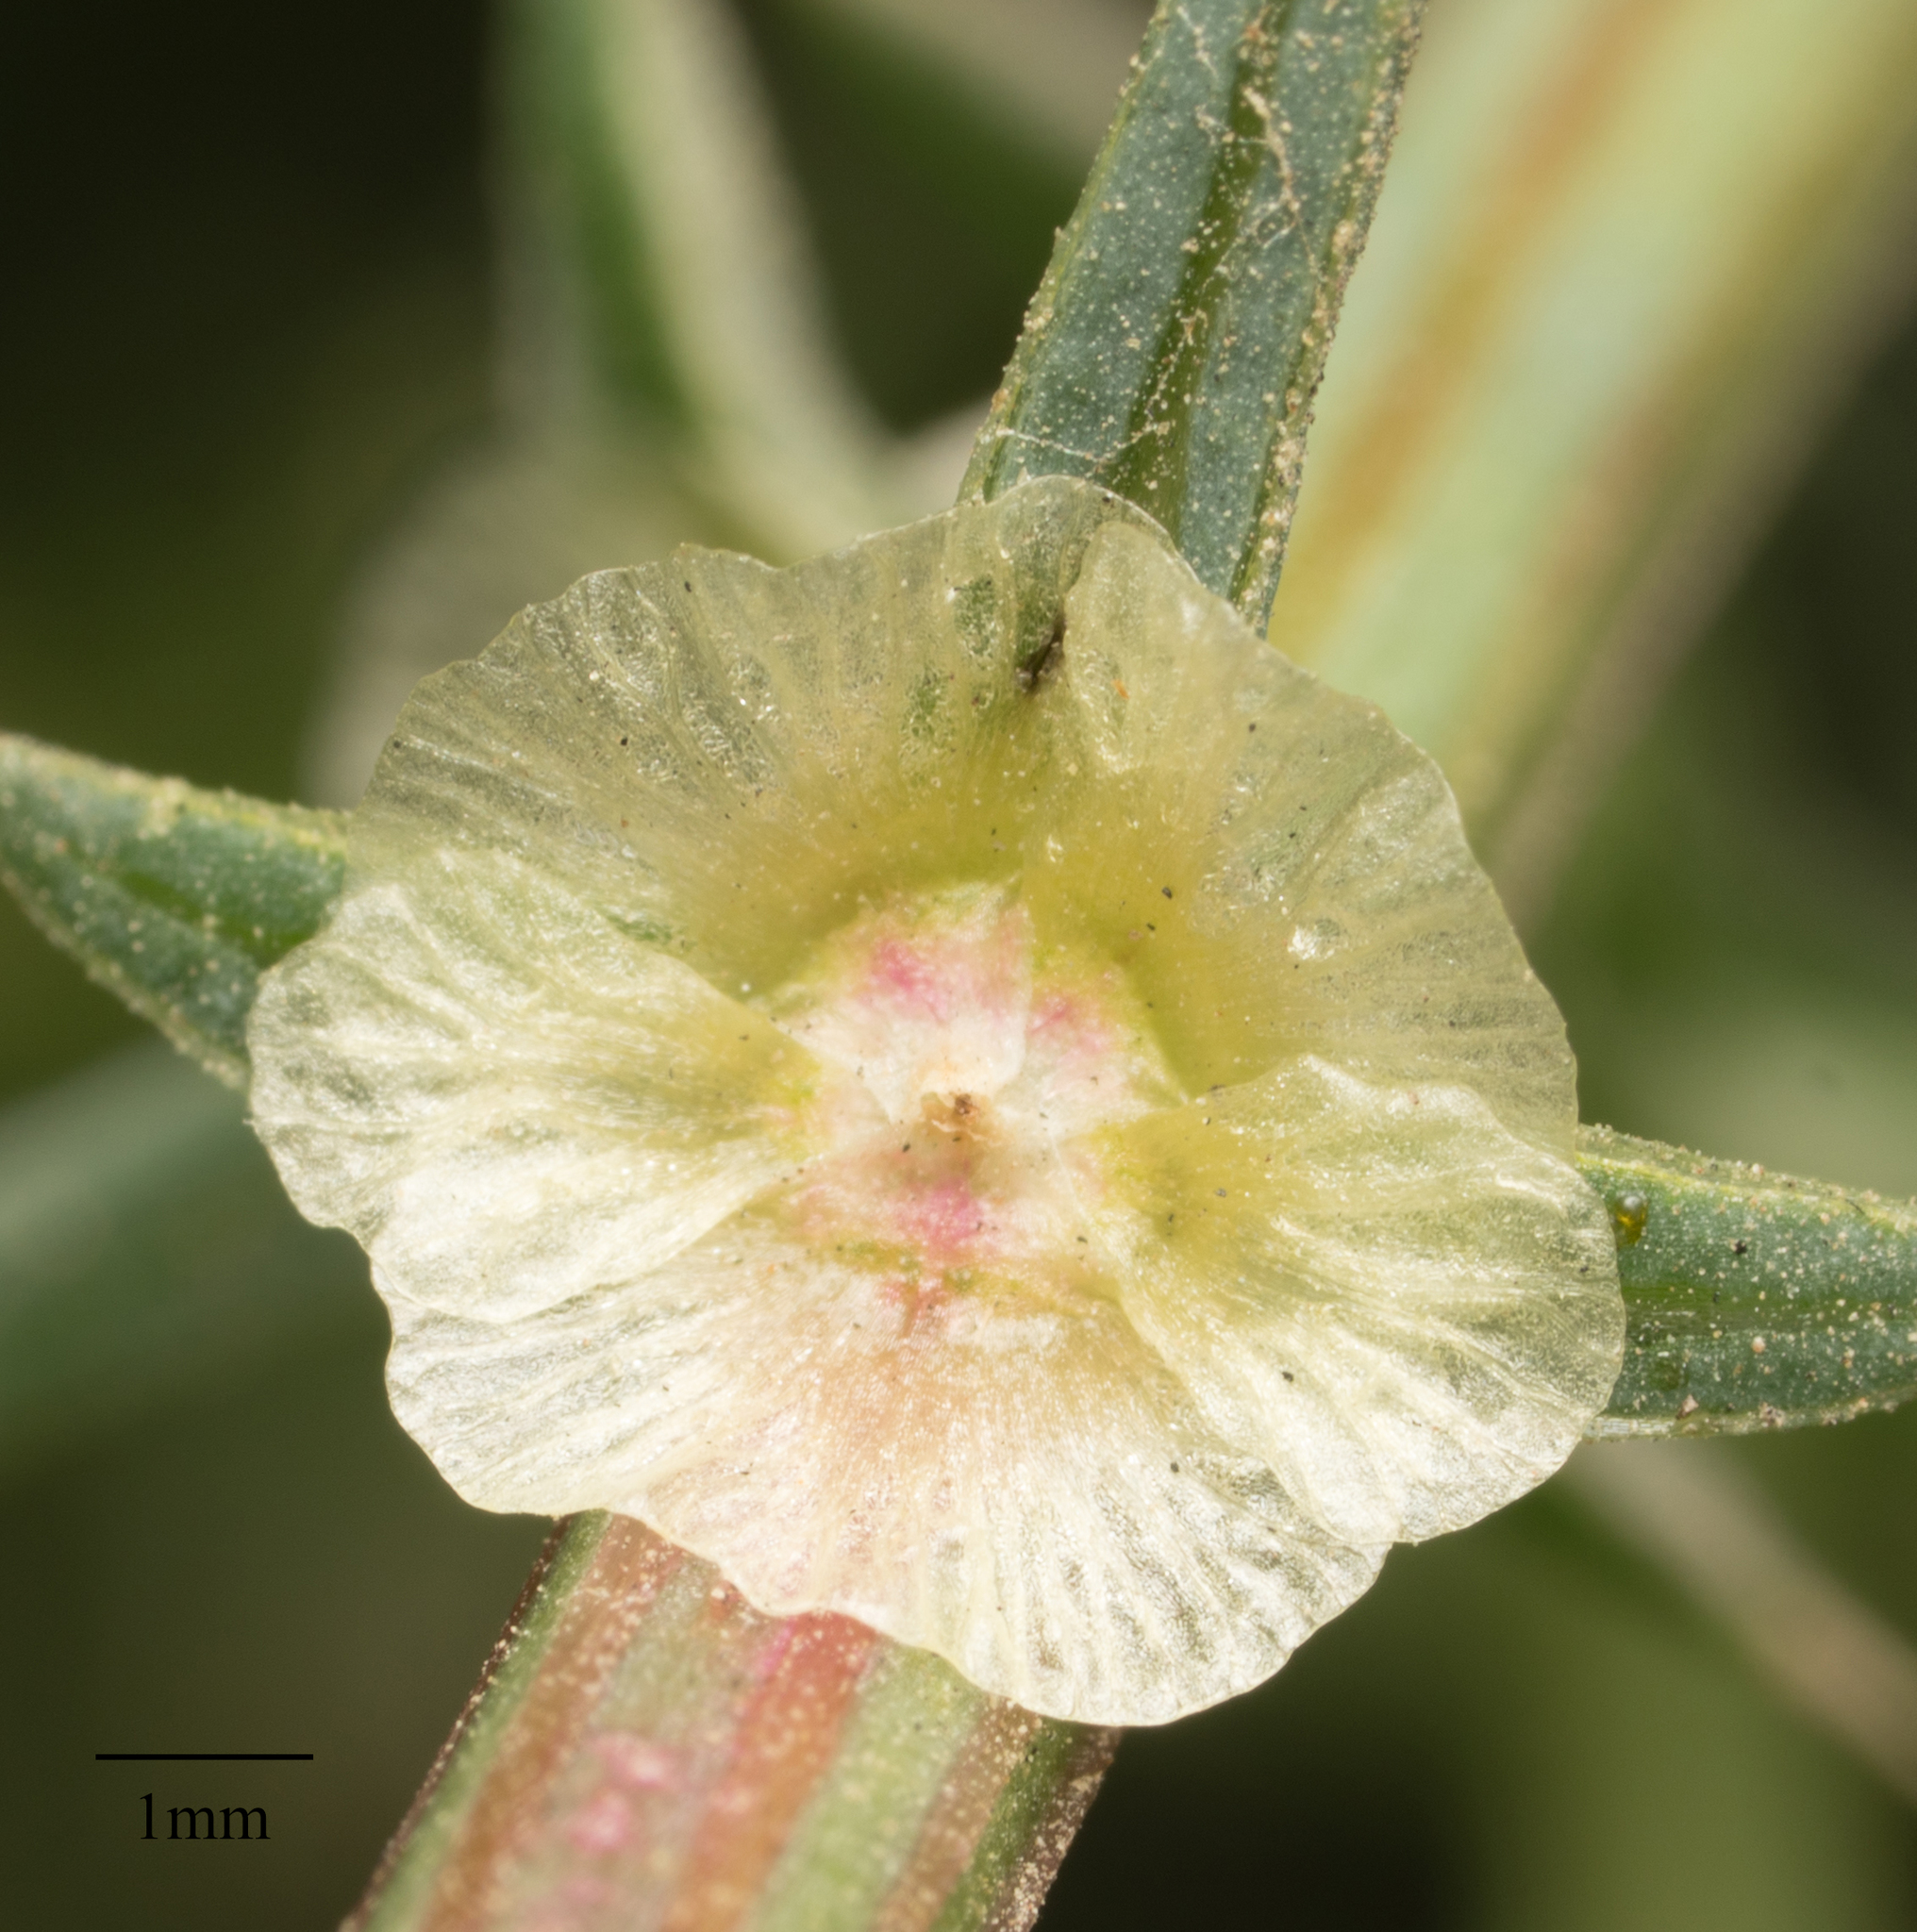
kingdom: Plantae
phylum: Tracheophyta
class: Magnoliopsida
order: Caryophyllales
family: Amaranthaceae
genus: Salsola
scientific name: Salsola australis
